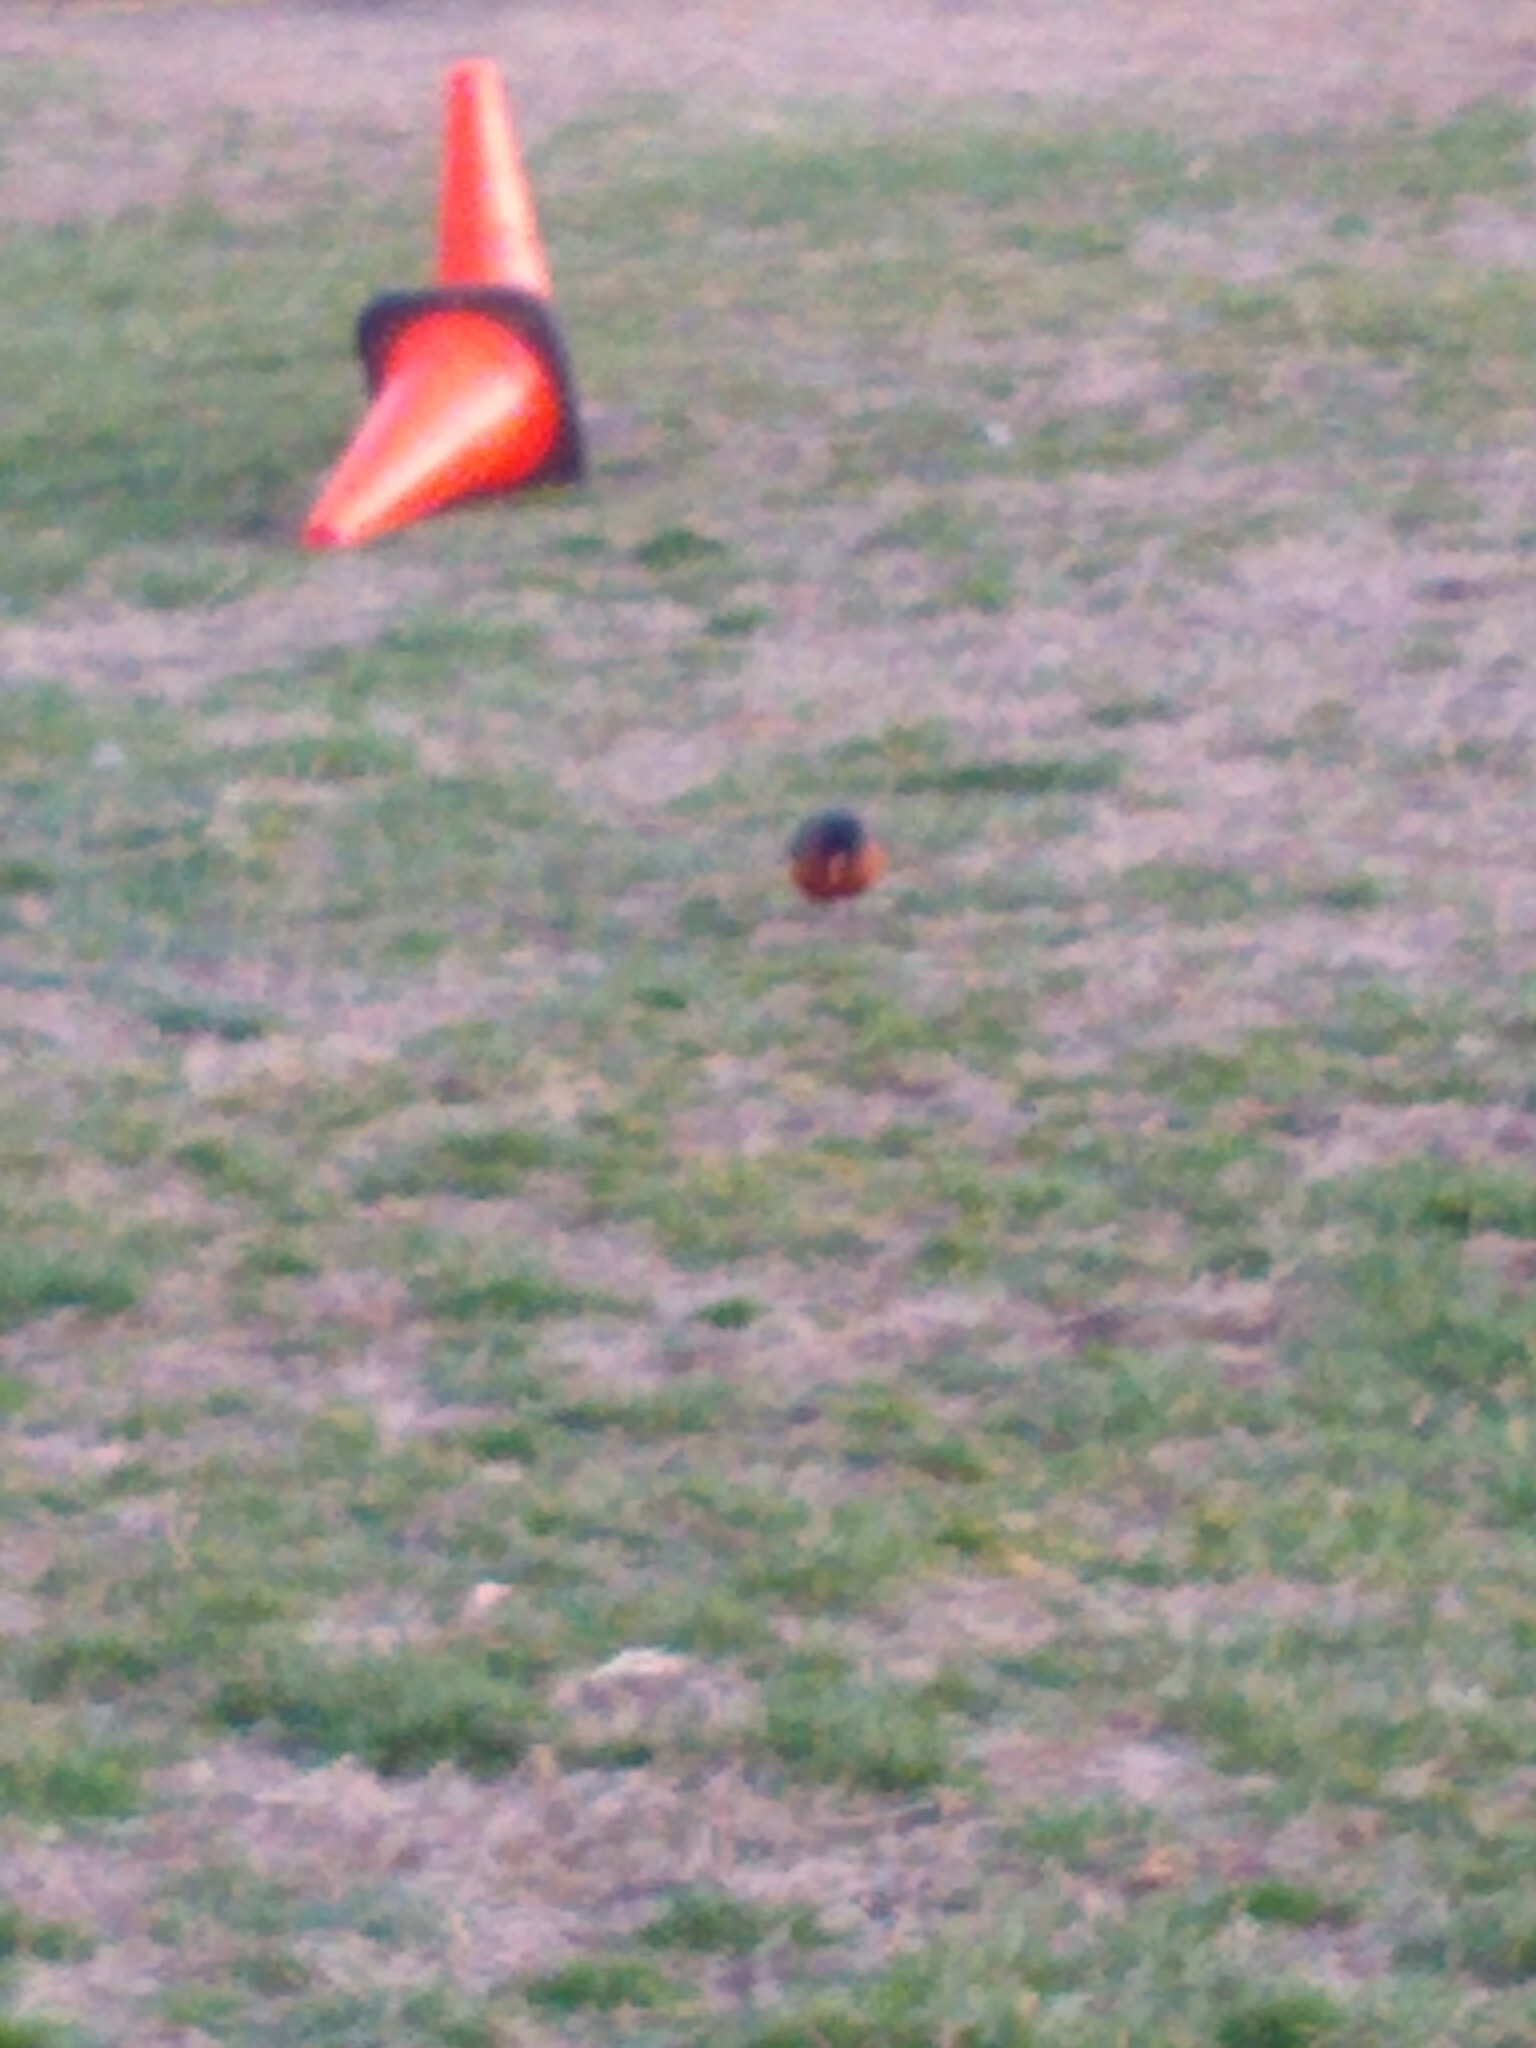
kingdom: Animalia
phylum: Chordata
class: Aves
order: Passeriformes
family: Turdidae
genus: Turdus
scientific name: Turdus migratorius
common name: American robin
